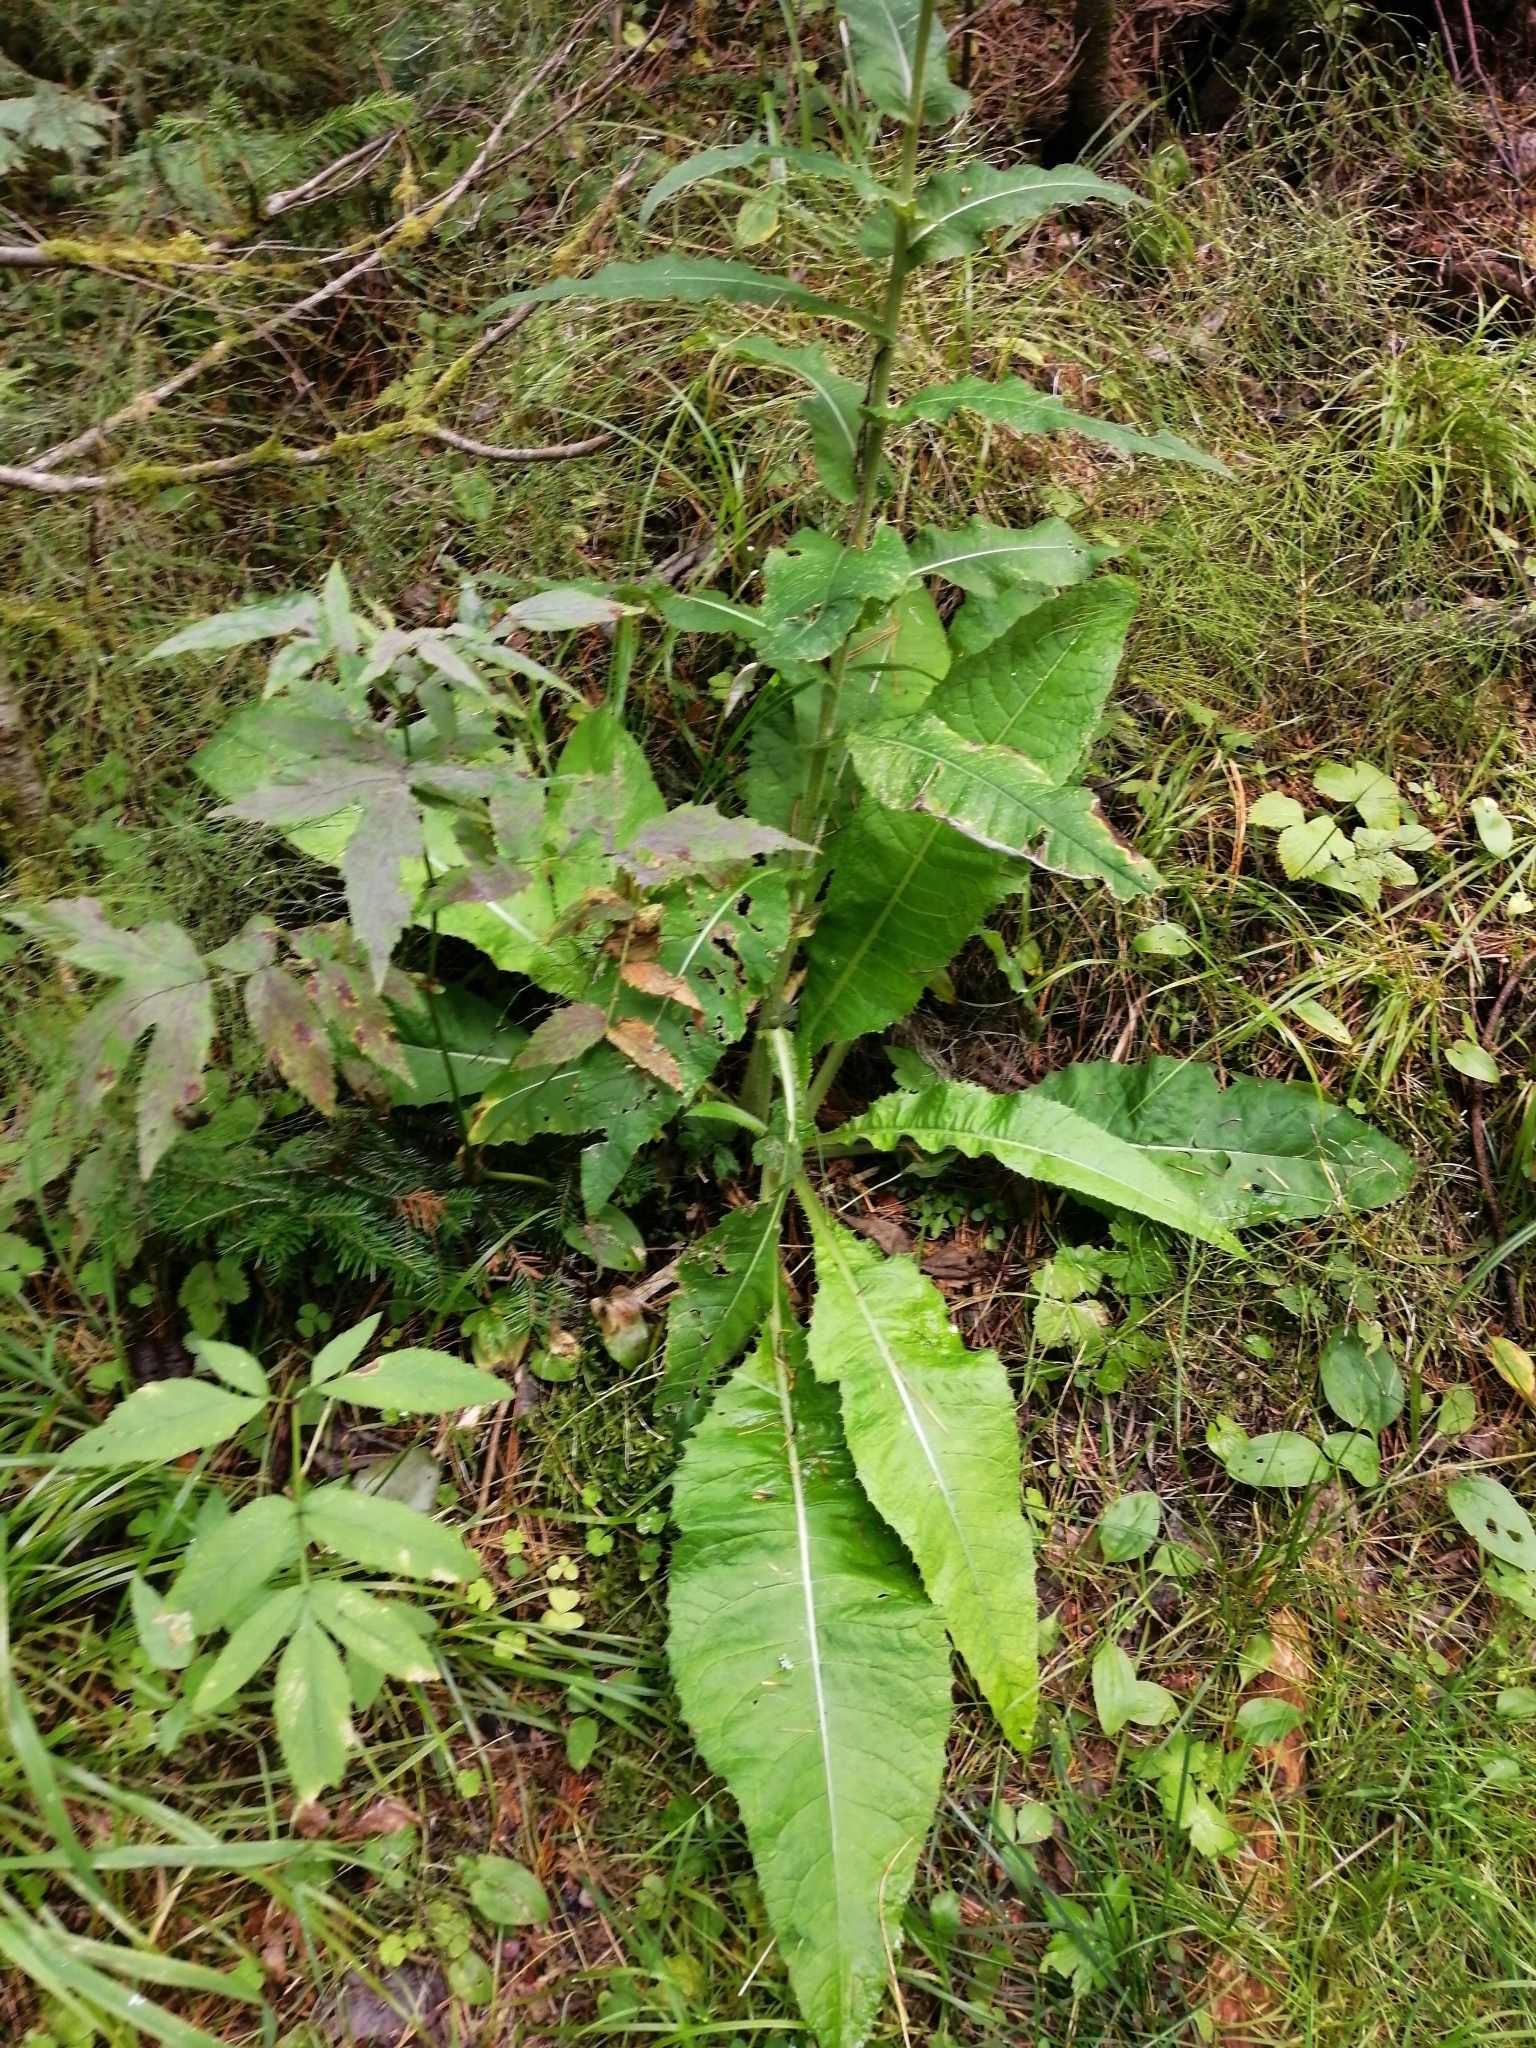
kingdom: Plantae
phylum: Tracheophyta
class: Magnoliopsida
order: Asterales
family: Asteraceae
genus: Cirsium
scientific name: Cirsium heterophyllum
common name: Melancholy thistle
